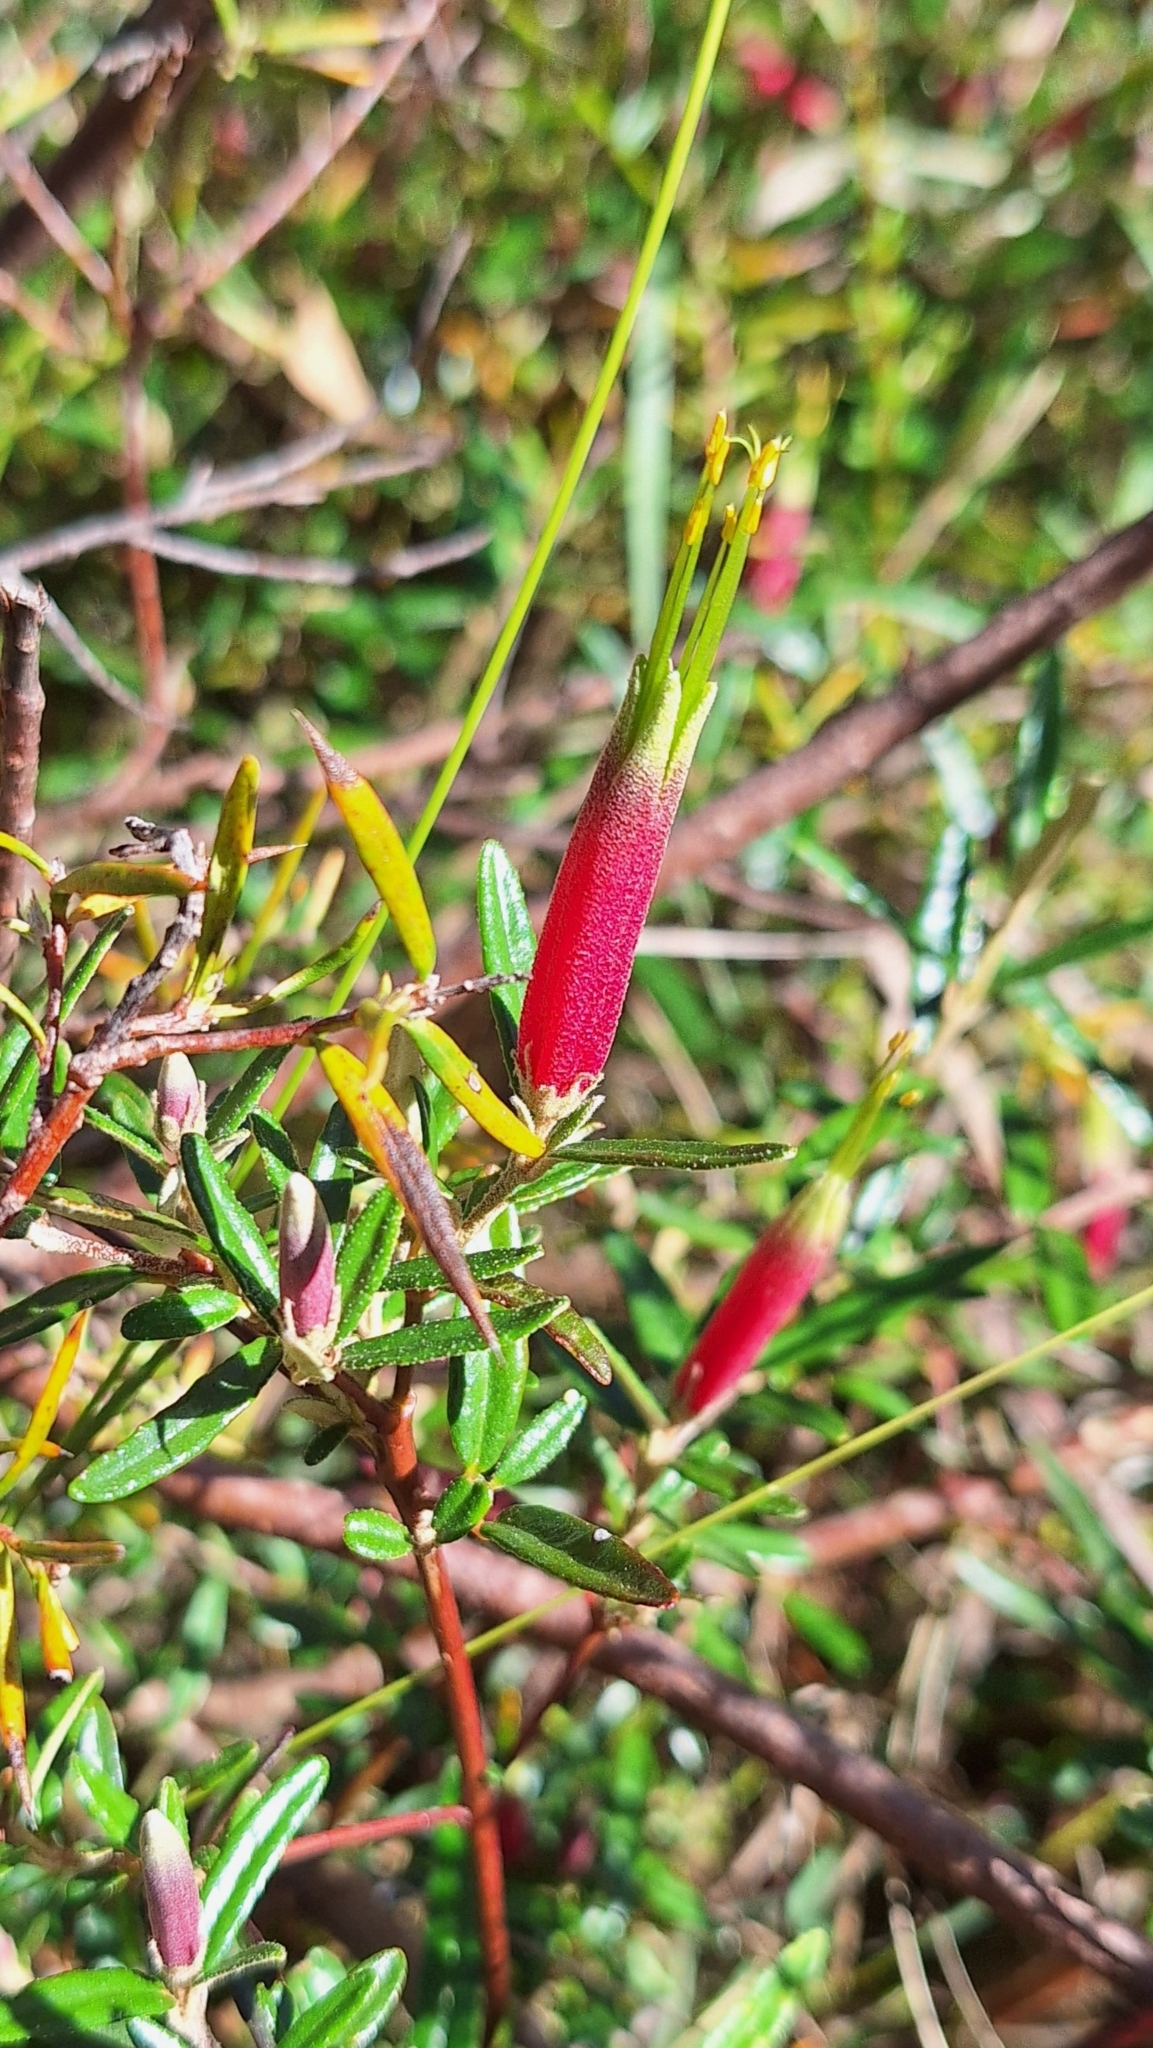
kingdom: Plantae
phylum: Tracheophyta
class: Magnoliopsida
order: Sapindales
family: Rutaceae
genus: Correa
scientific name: Correa decumbens
